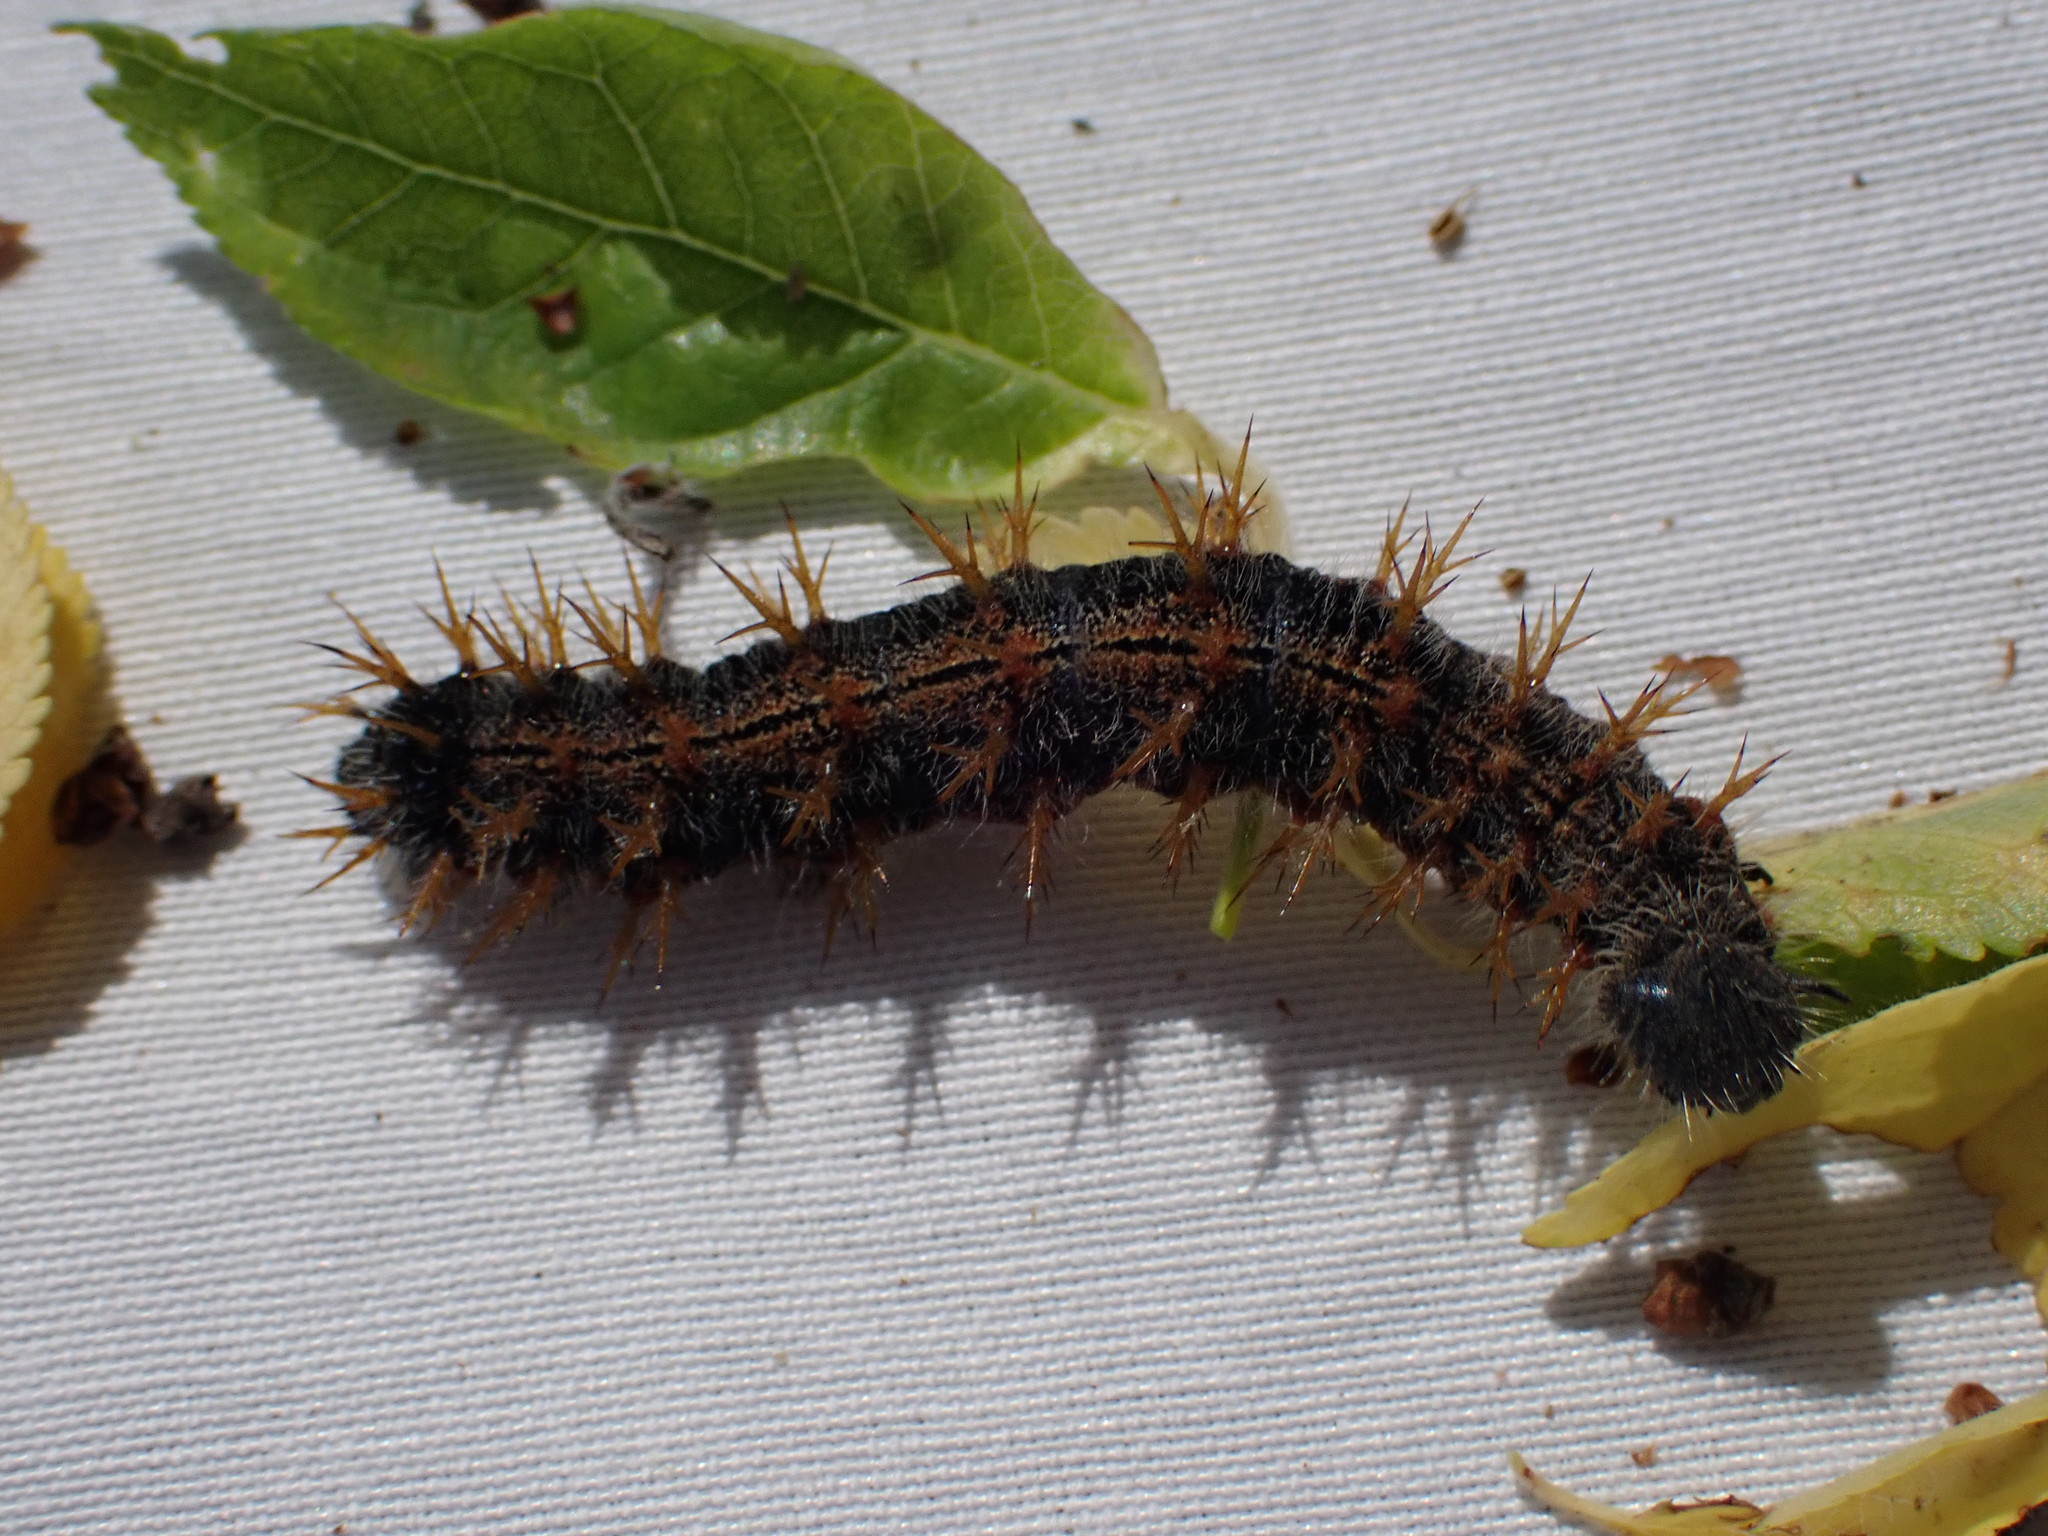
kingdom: Animalia
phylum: Arthropoda
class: Insecta
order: Lepidoptera
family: Nymphalidae
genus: Nymphalis
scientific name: Nymphalis polychloros
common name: Large tortoiseshell
